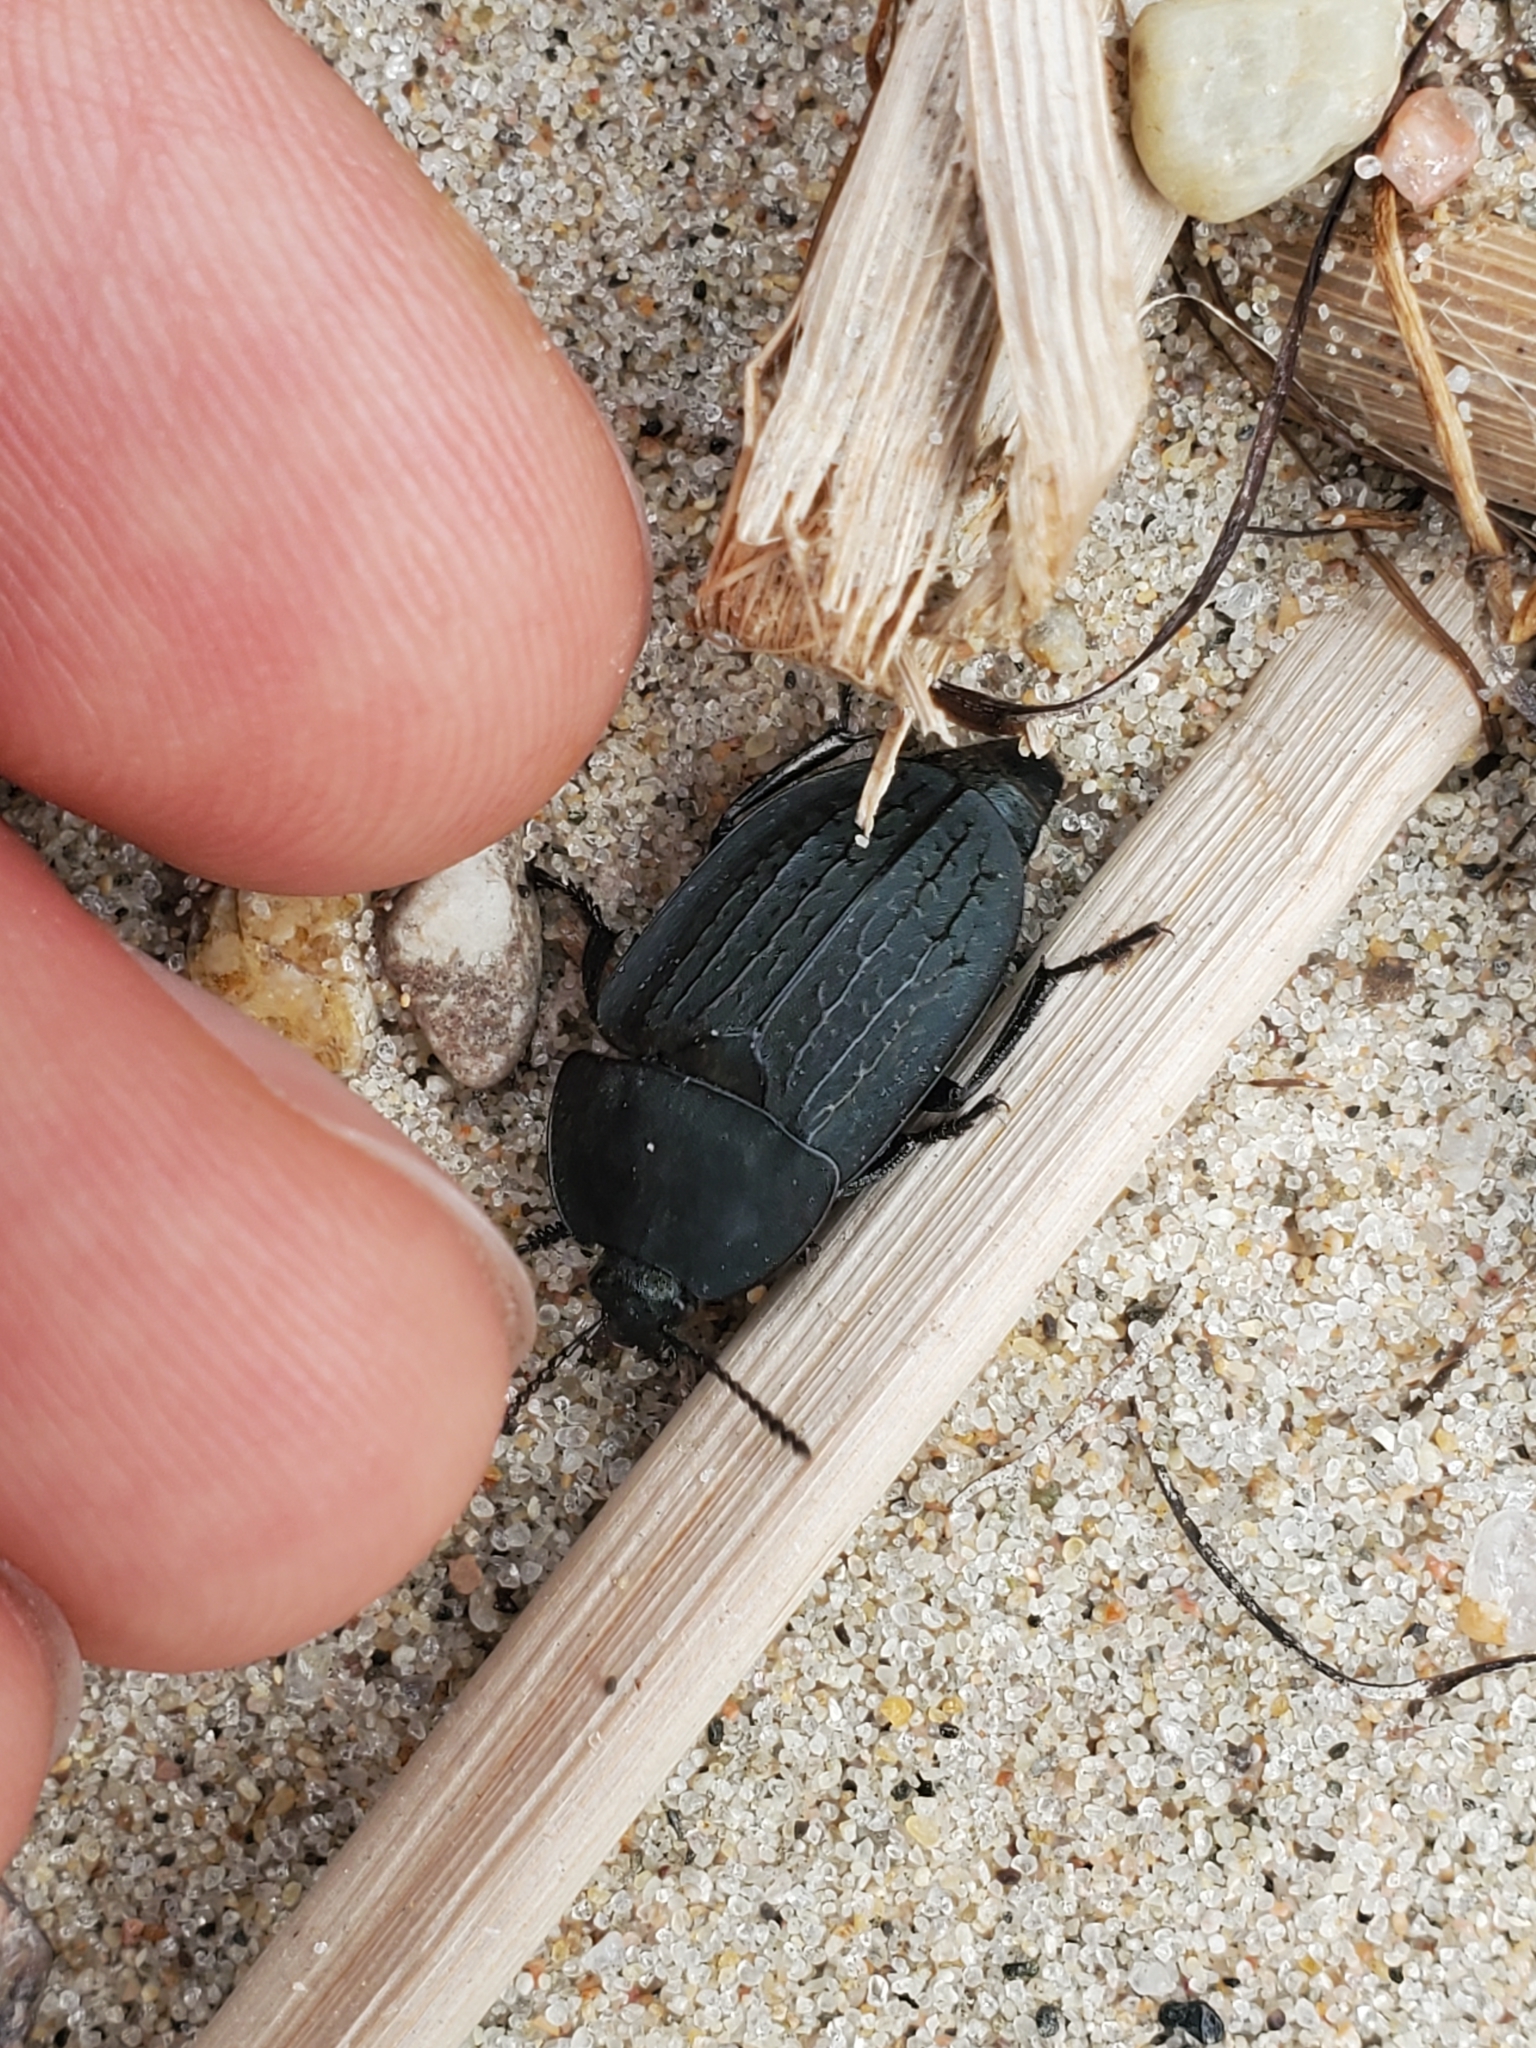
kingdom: Animalia
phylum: Arthropoda
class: Insecta
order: Coleoptera
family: Staphylinidae
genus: Heterosilpha
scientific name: Heterosilpha ramosa
